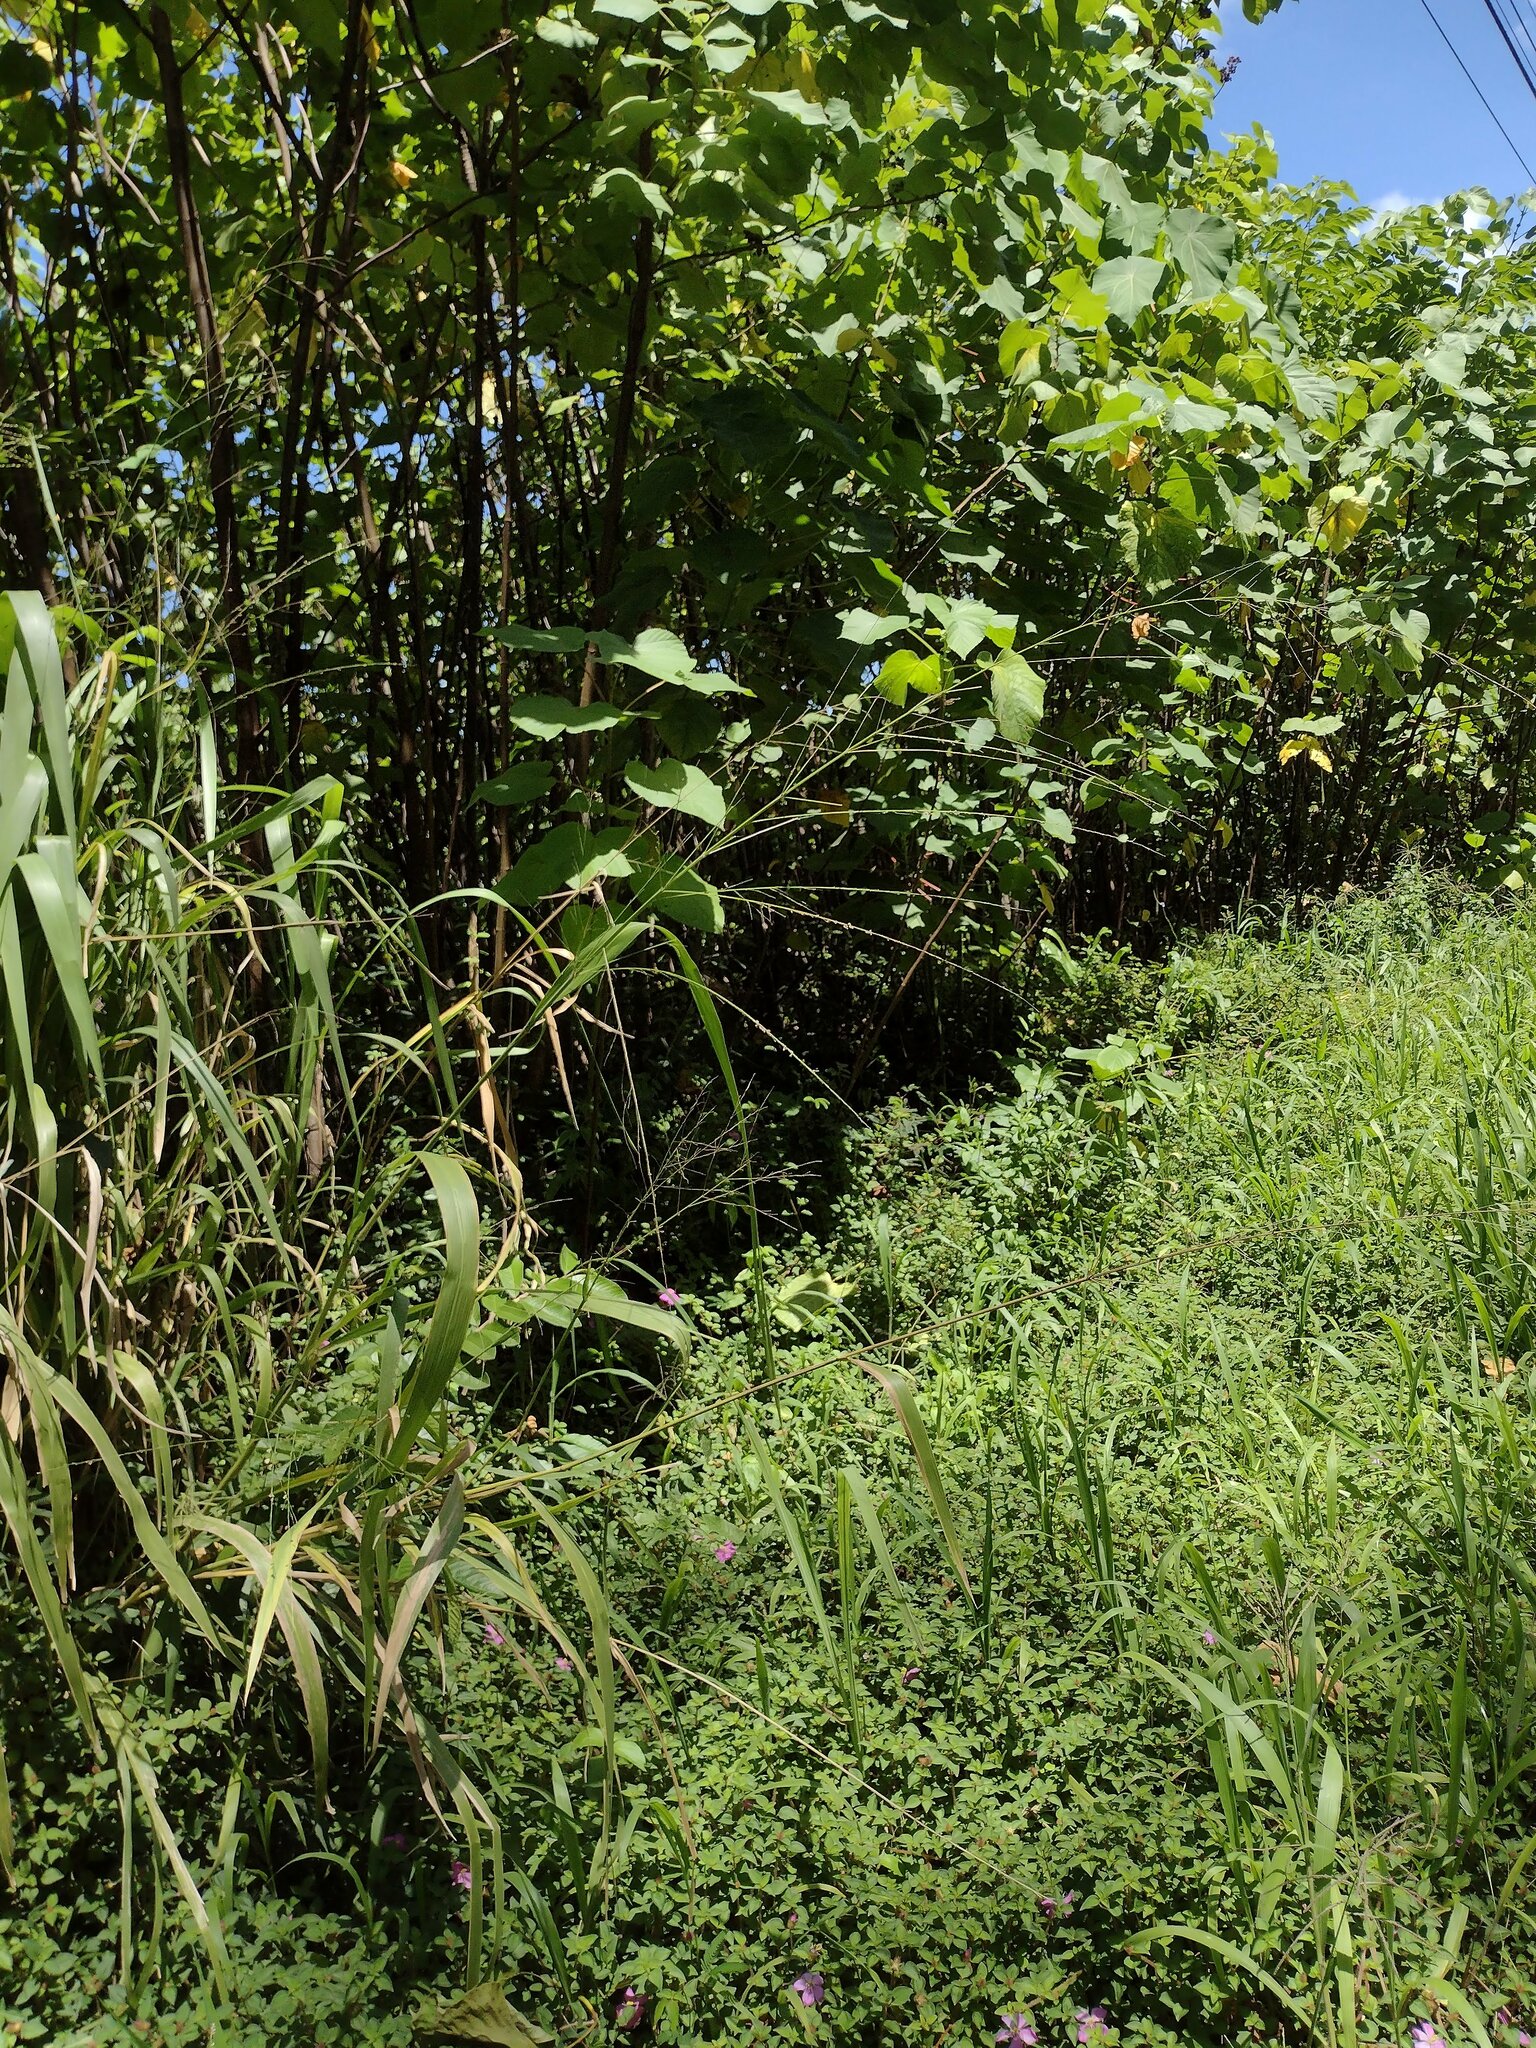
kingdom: Plantae
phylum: Tracheophyta
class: Liliopsida
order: Poales
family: Poaceae
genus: Megathyrsus
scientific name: Megathyrsus maximus
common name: Guineagrass
